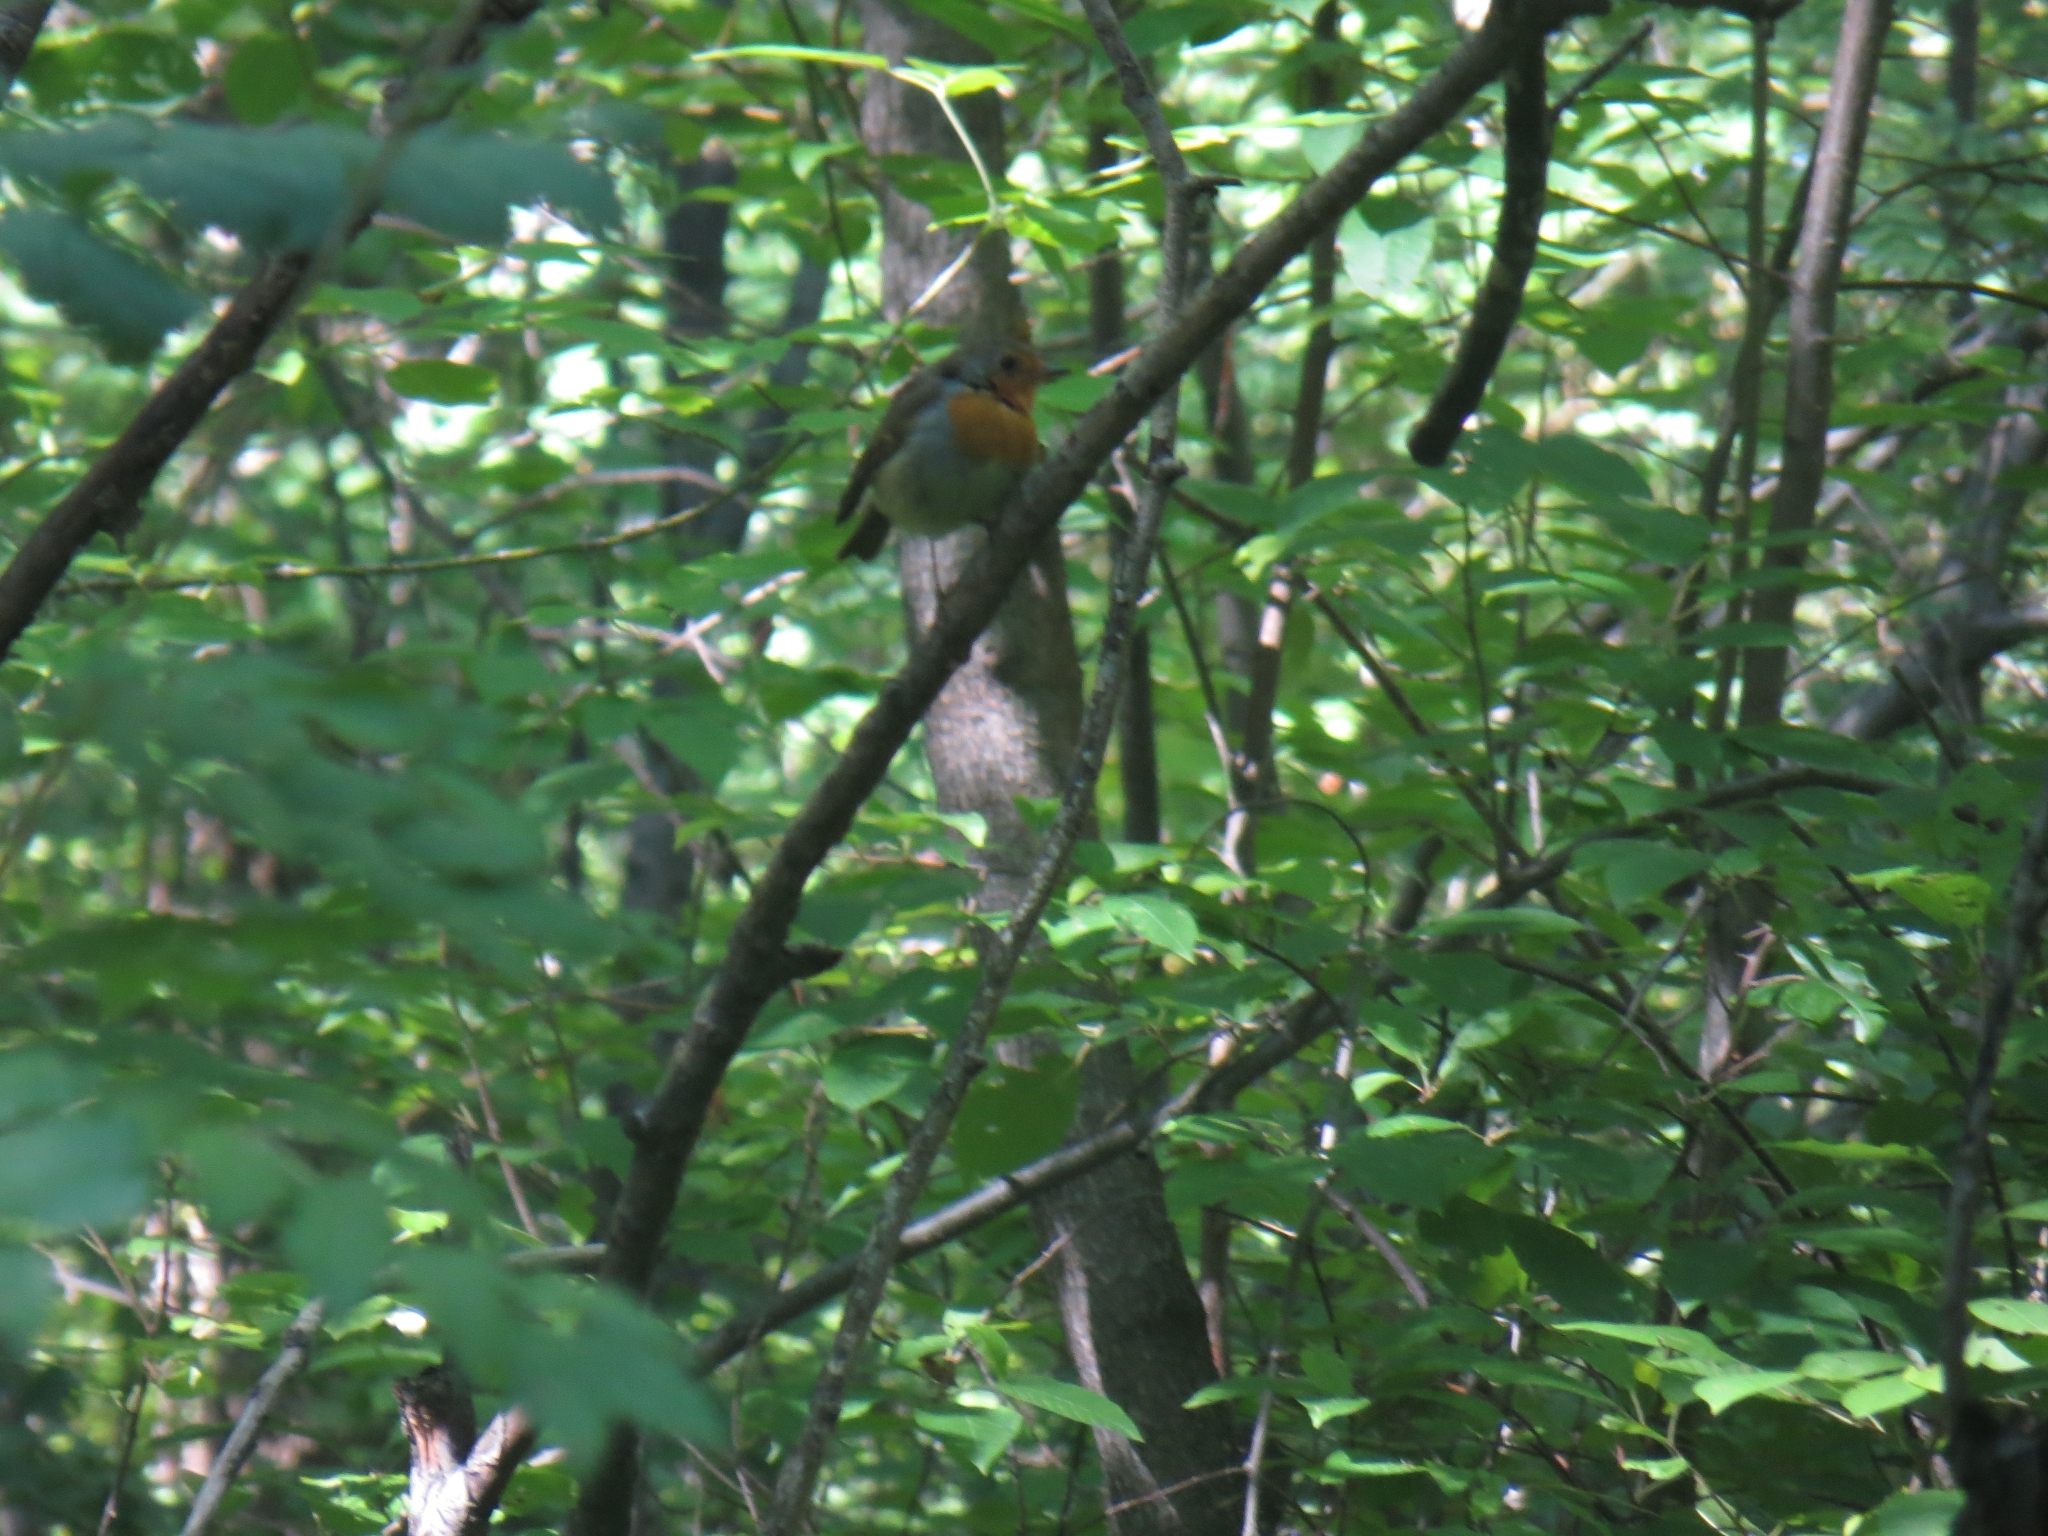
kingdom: Animalia
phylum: Chordata
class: Aves
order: Passeriformes
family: Muscicapidae
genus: Erithacus
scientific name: Erithacus rubecula
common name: European robin
